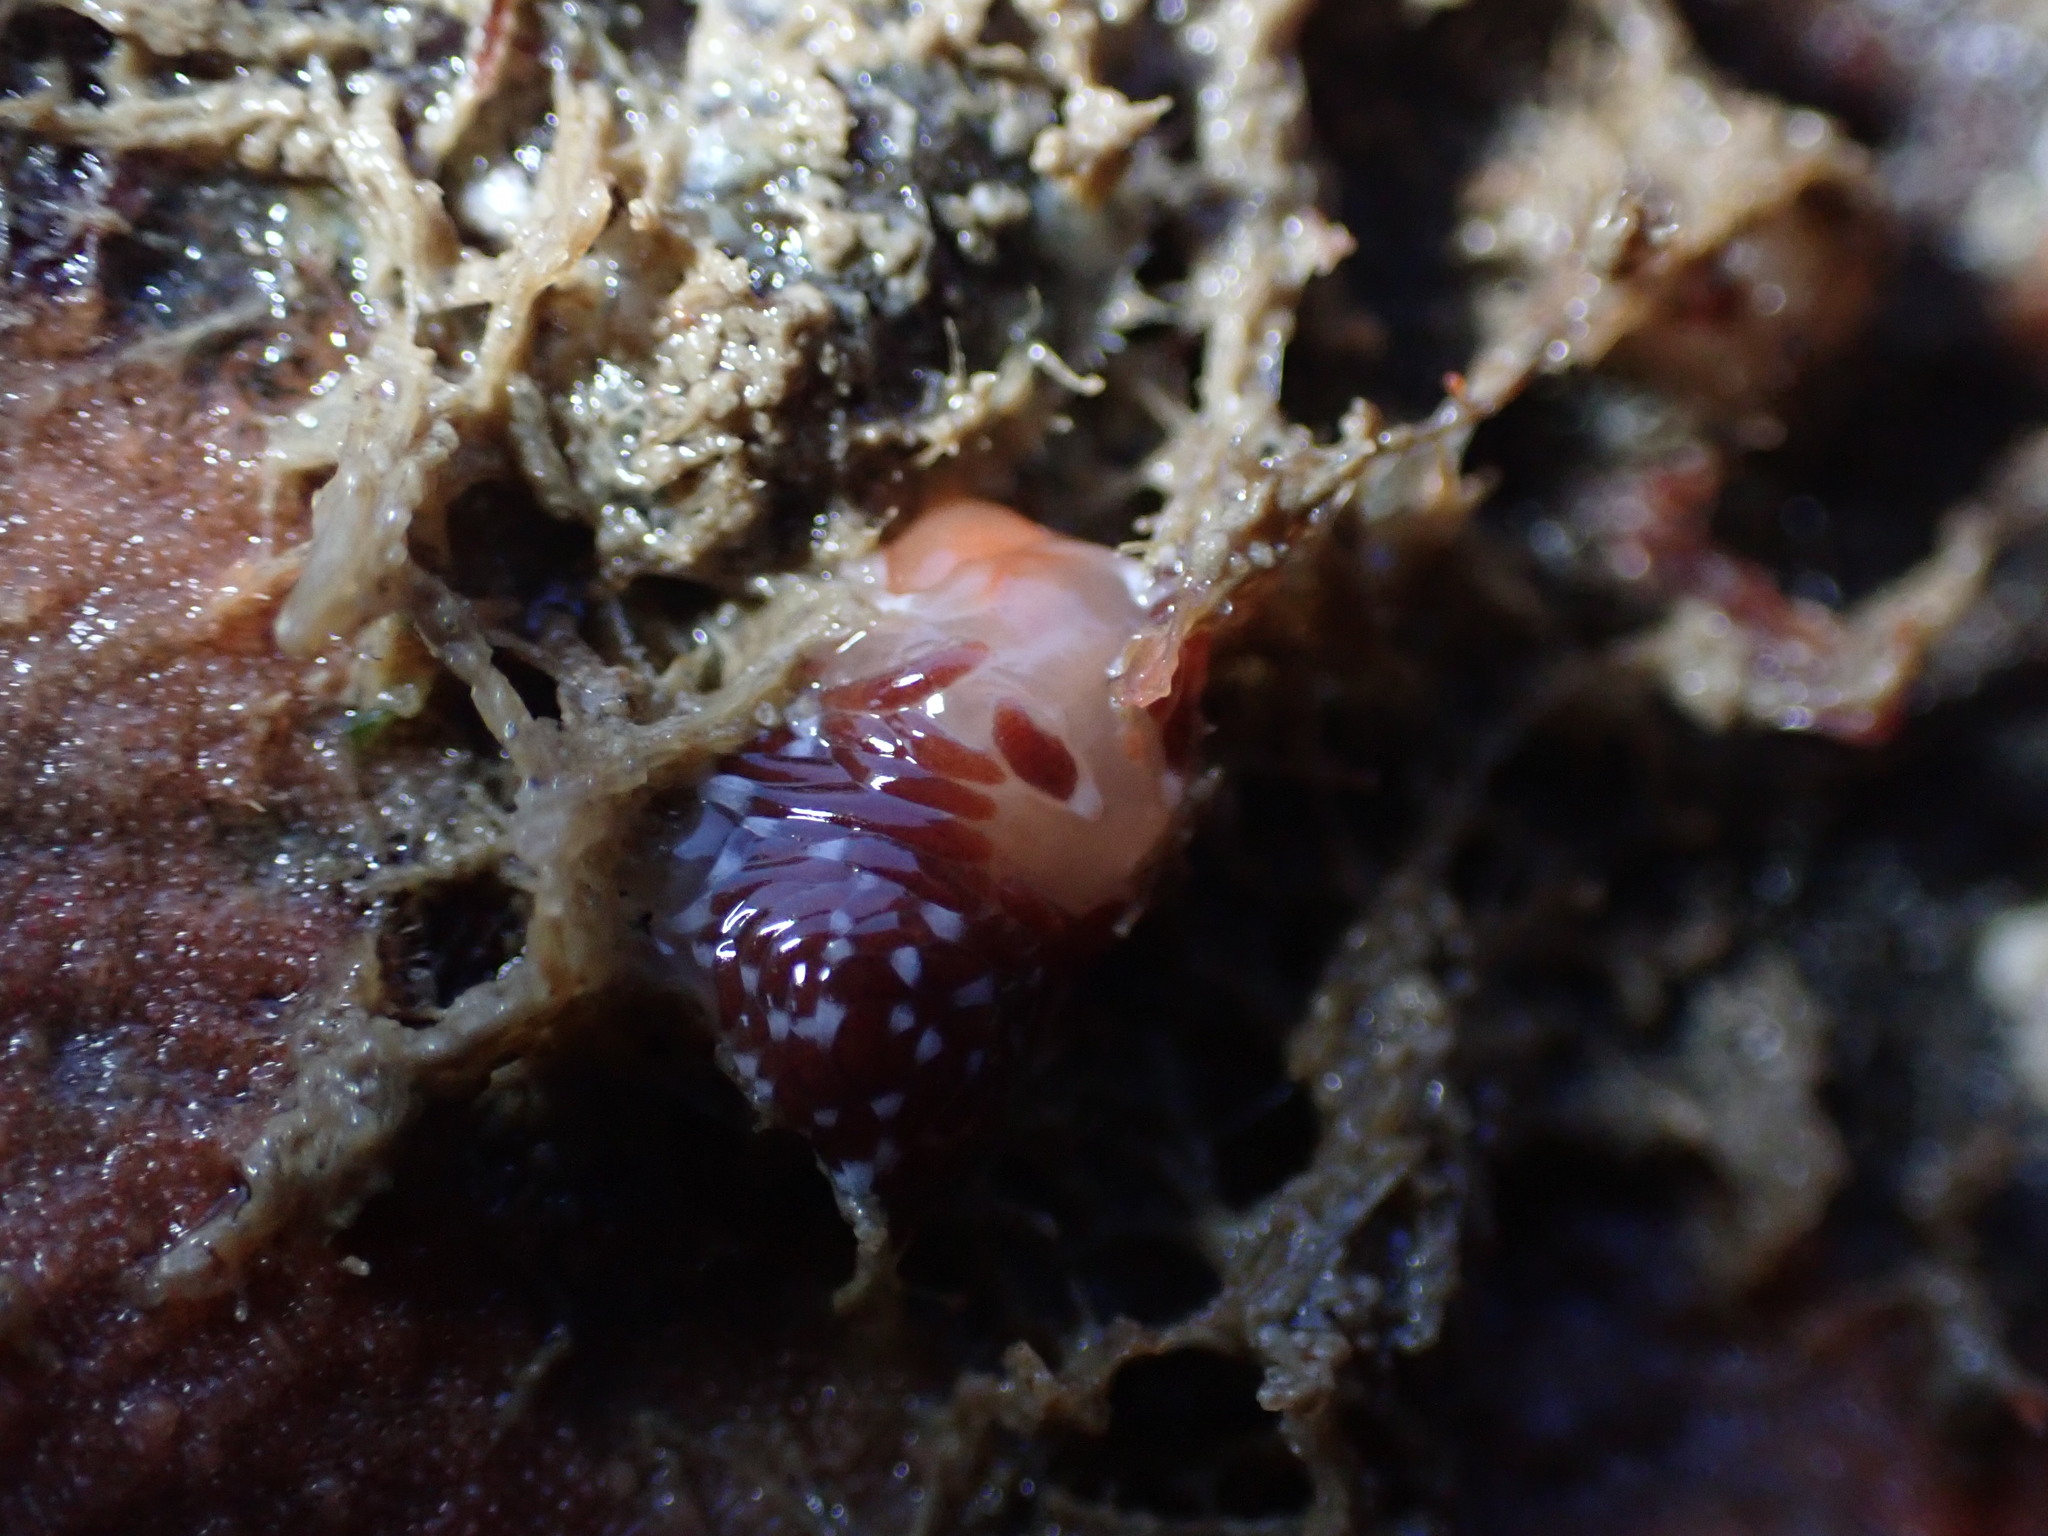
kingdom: Animalia
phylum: Mollusca
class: Gastropoda
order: Nudibranchia
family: Facelinidae
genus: Phidiana
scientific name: Phidiana milleri
